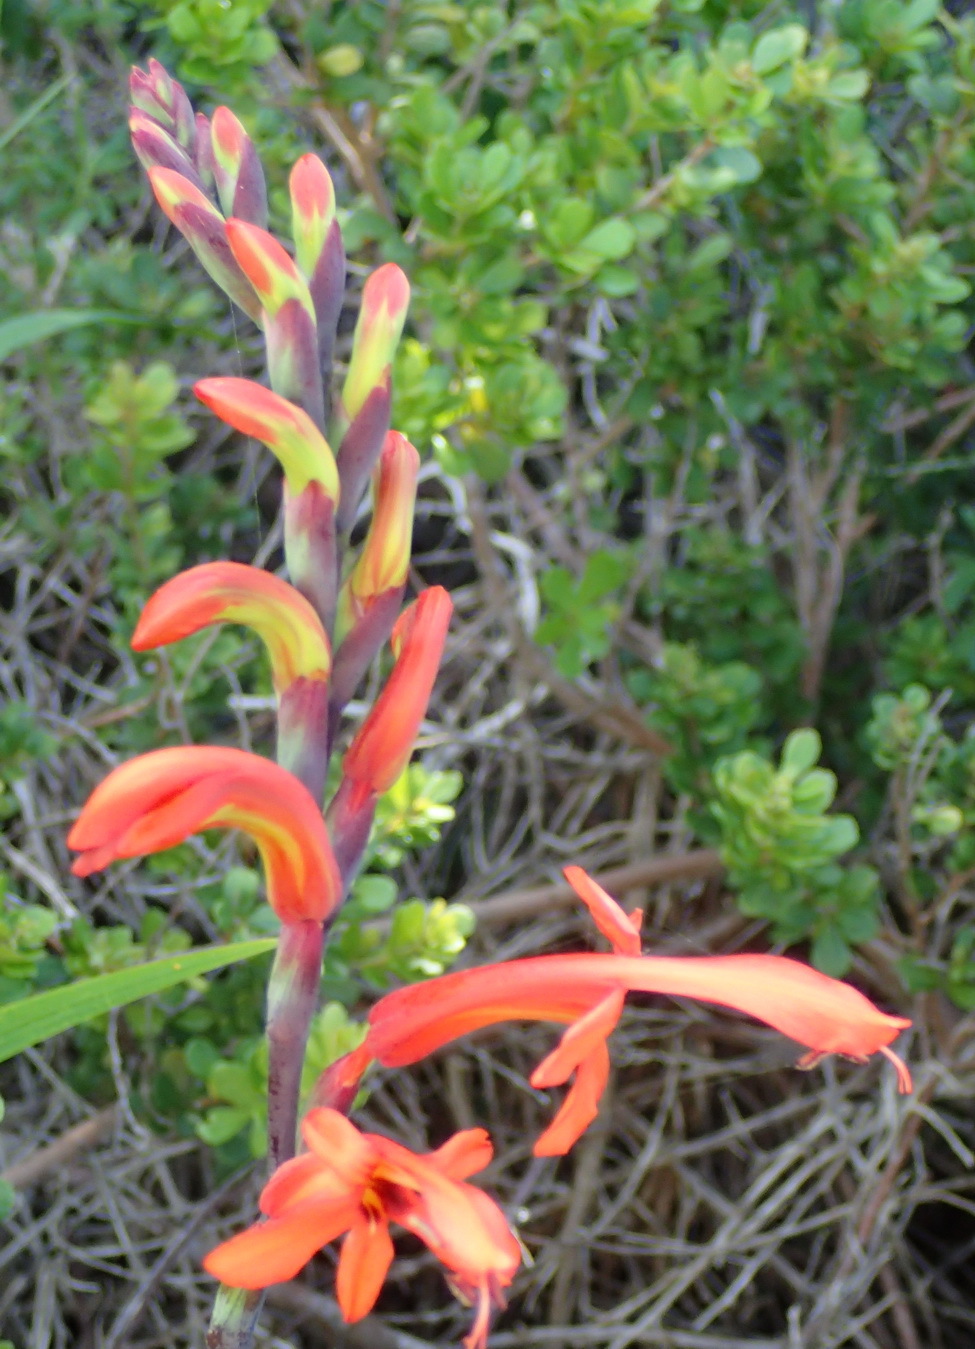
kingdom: Plantae
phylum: Tracheophyta
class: Liliopsida
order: Asparagales
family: Iridaceae
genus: Chasmanthe
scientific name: Chasmanthe aethiopica
